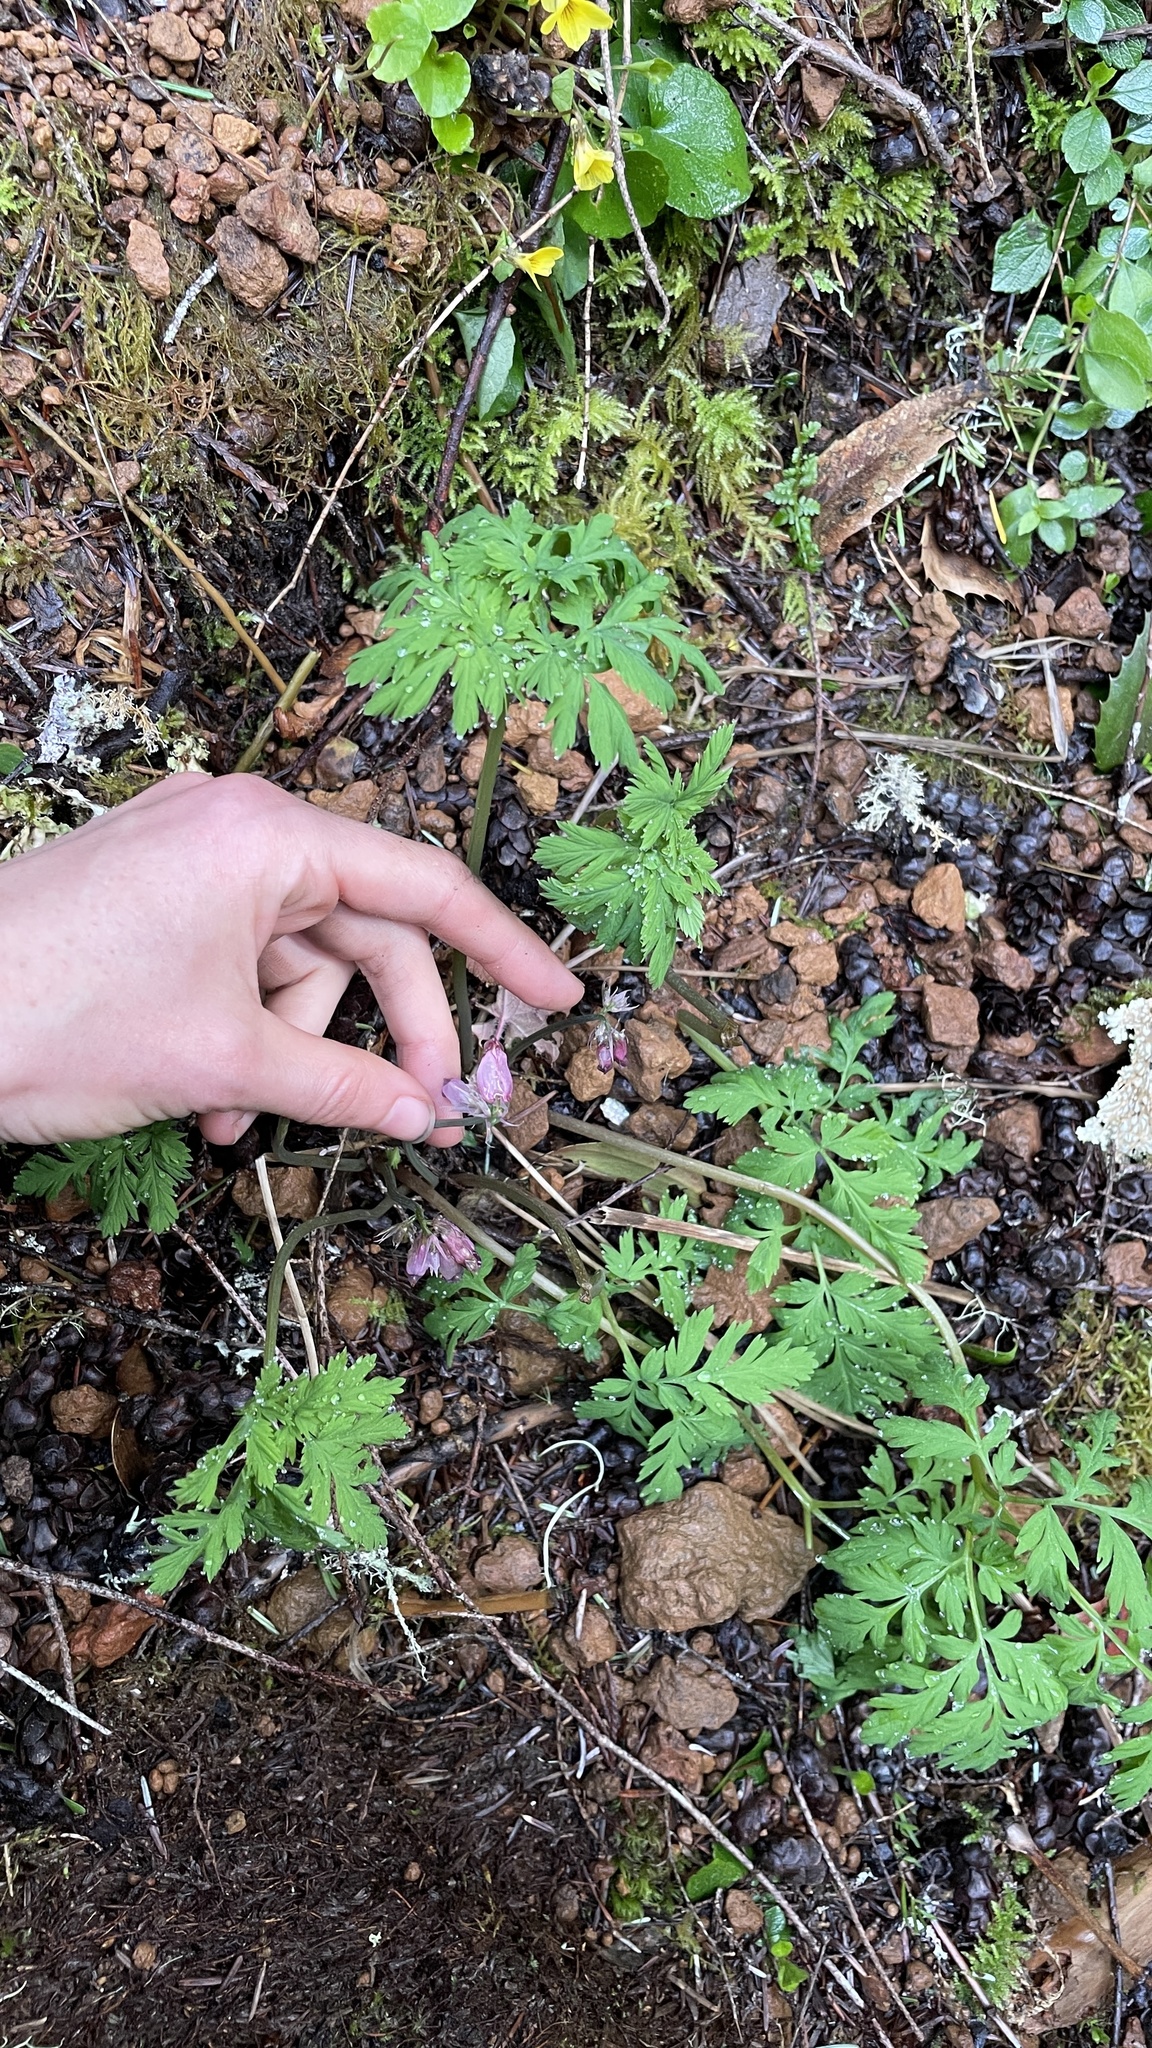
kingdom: Plantae
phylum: Tracheophyta
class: Magnoliopsida
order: Ranunculales
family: Papaveraceae
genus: Dicentra
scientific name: Dicentra formosa
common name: Bleeding-heart
